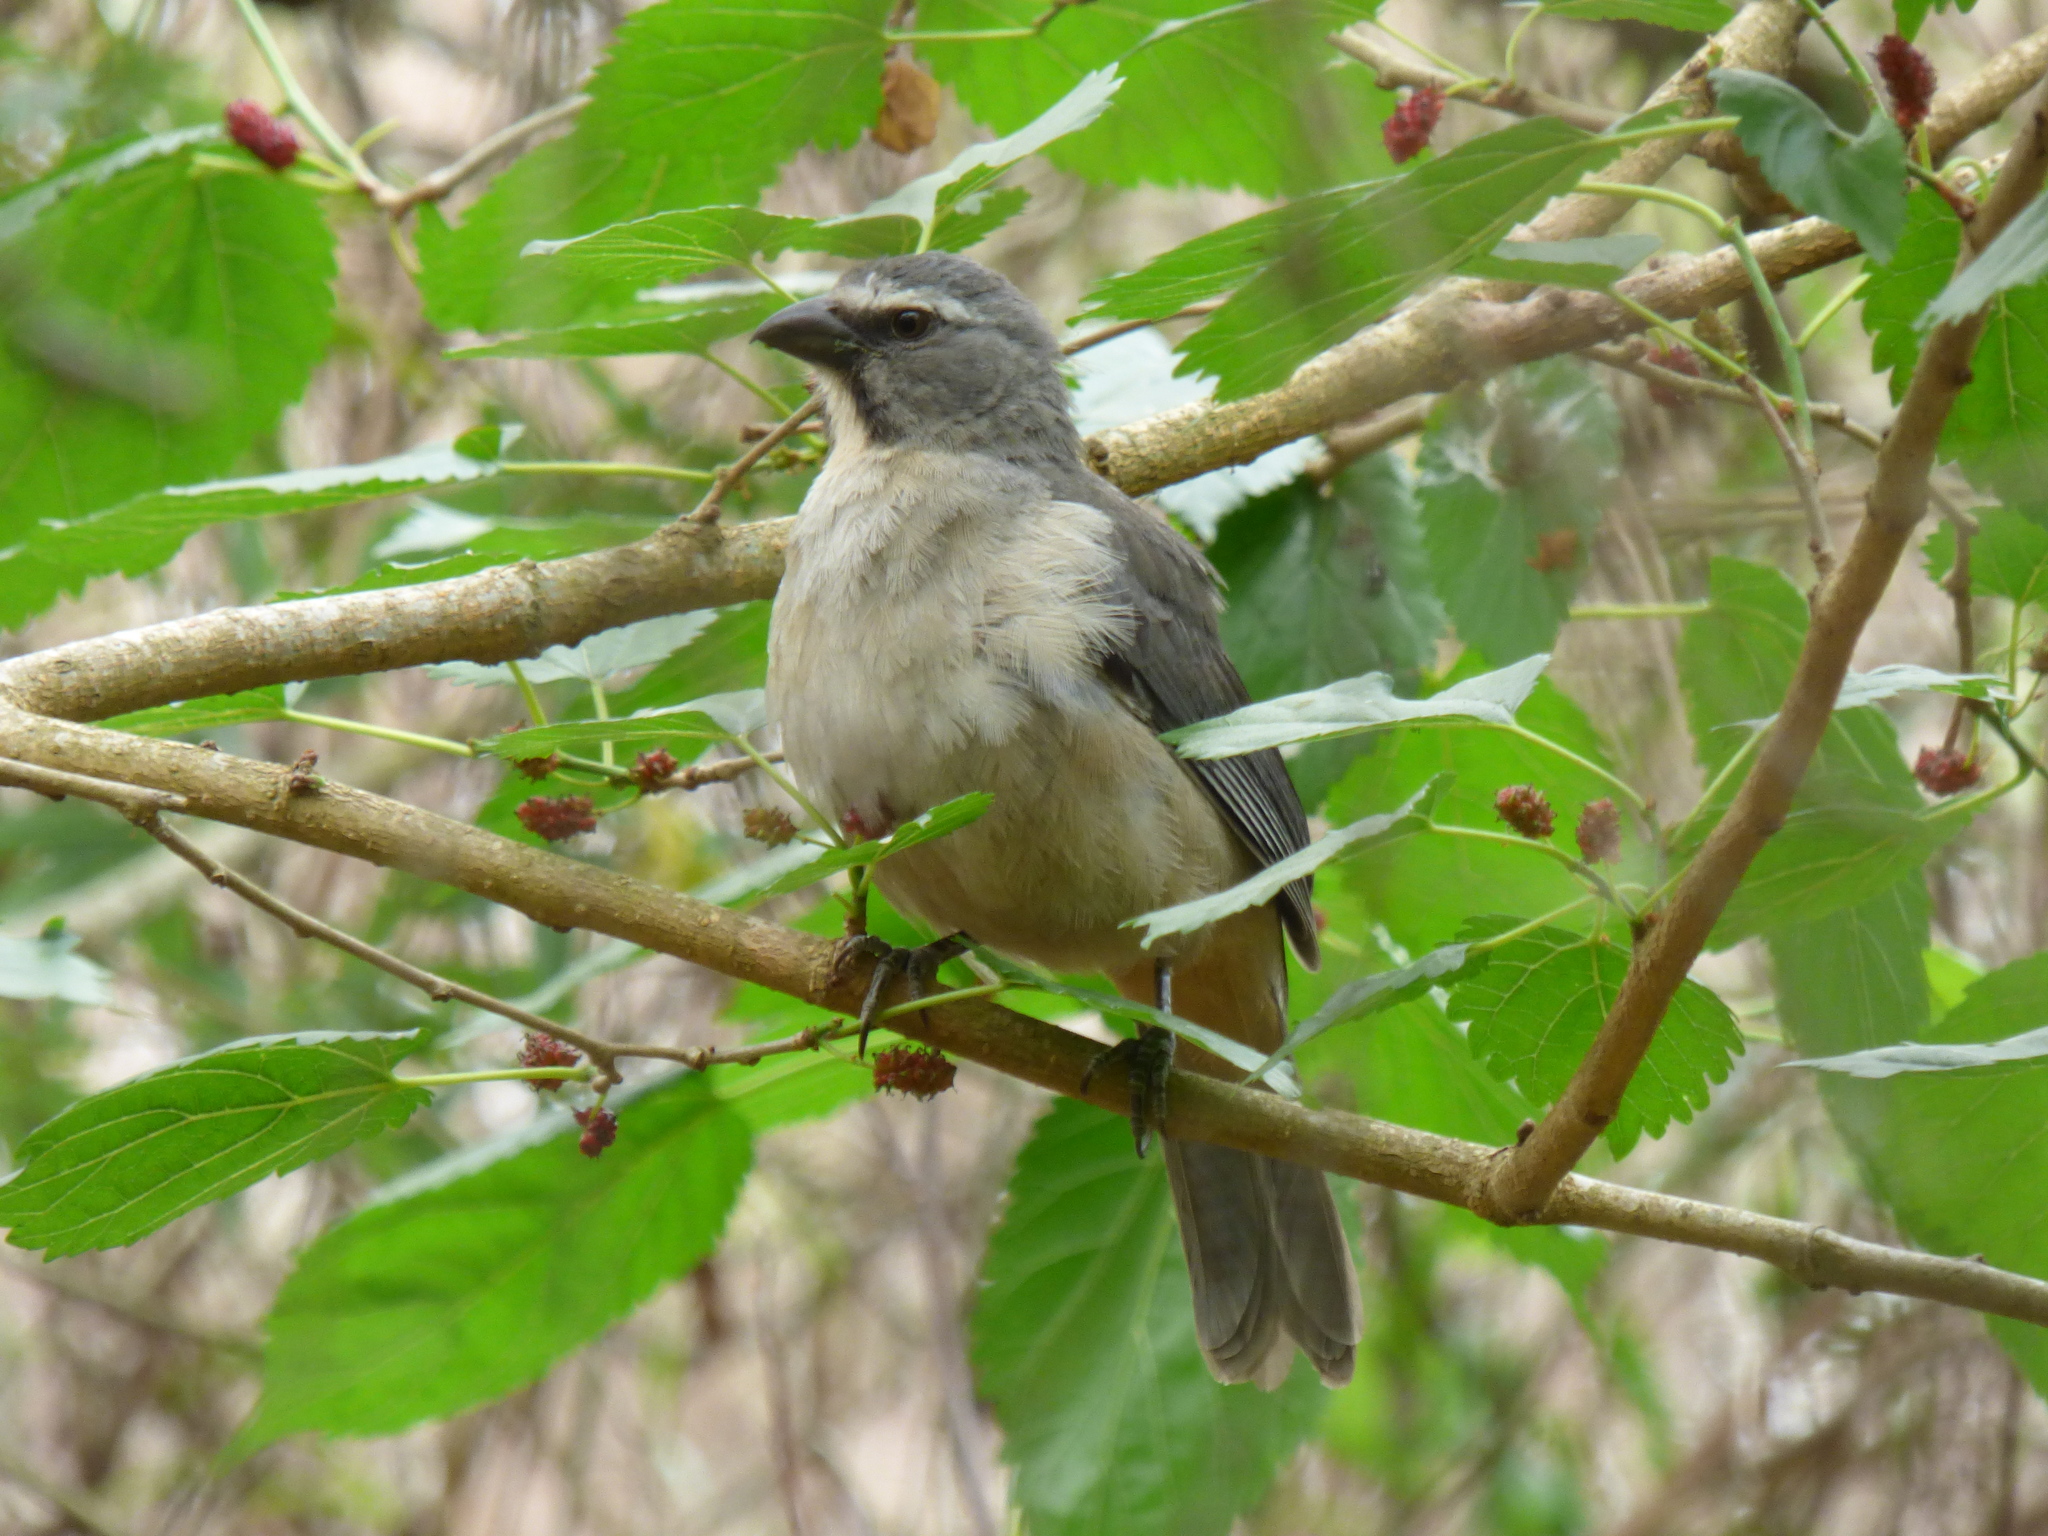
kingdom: Animalia
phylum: Chordata
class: Aves
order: Passeriformes
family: Thraupidae
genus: Saltator
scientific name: Saltator coerulescens
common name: Grayish saltator
